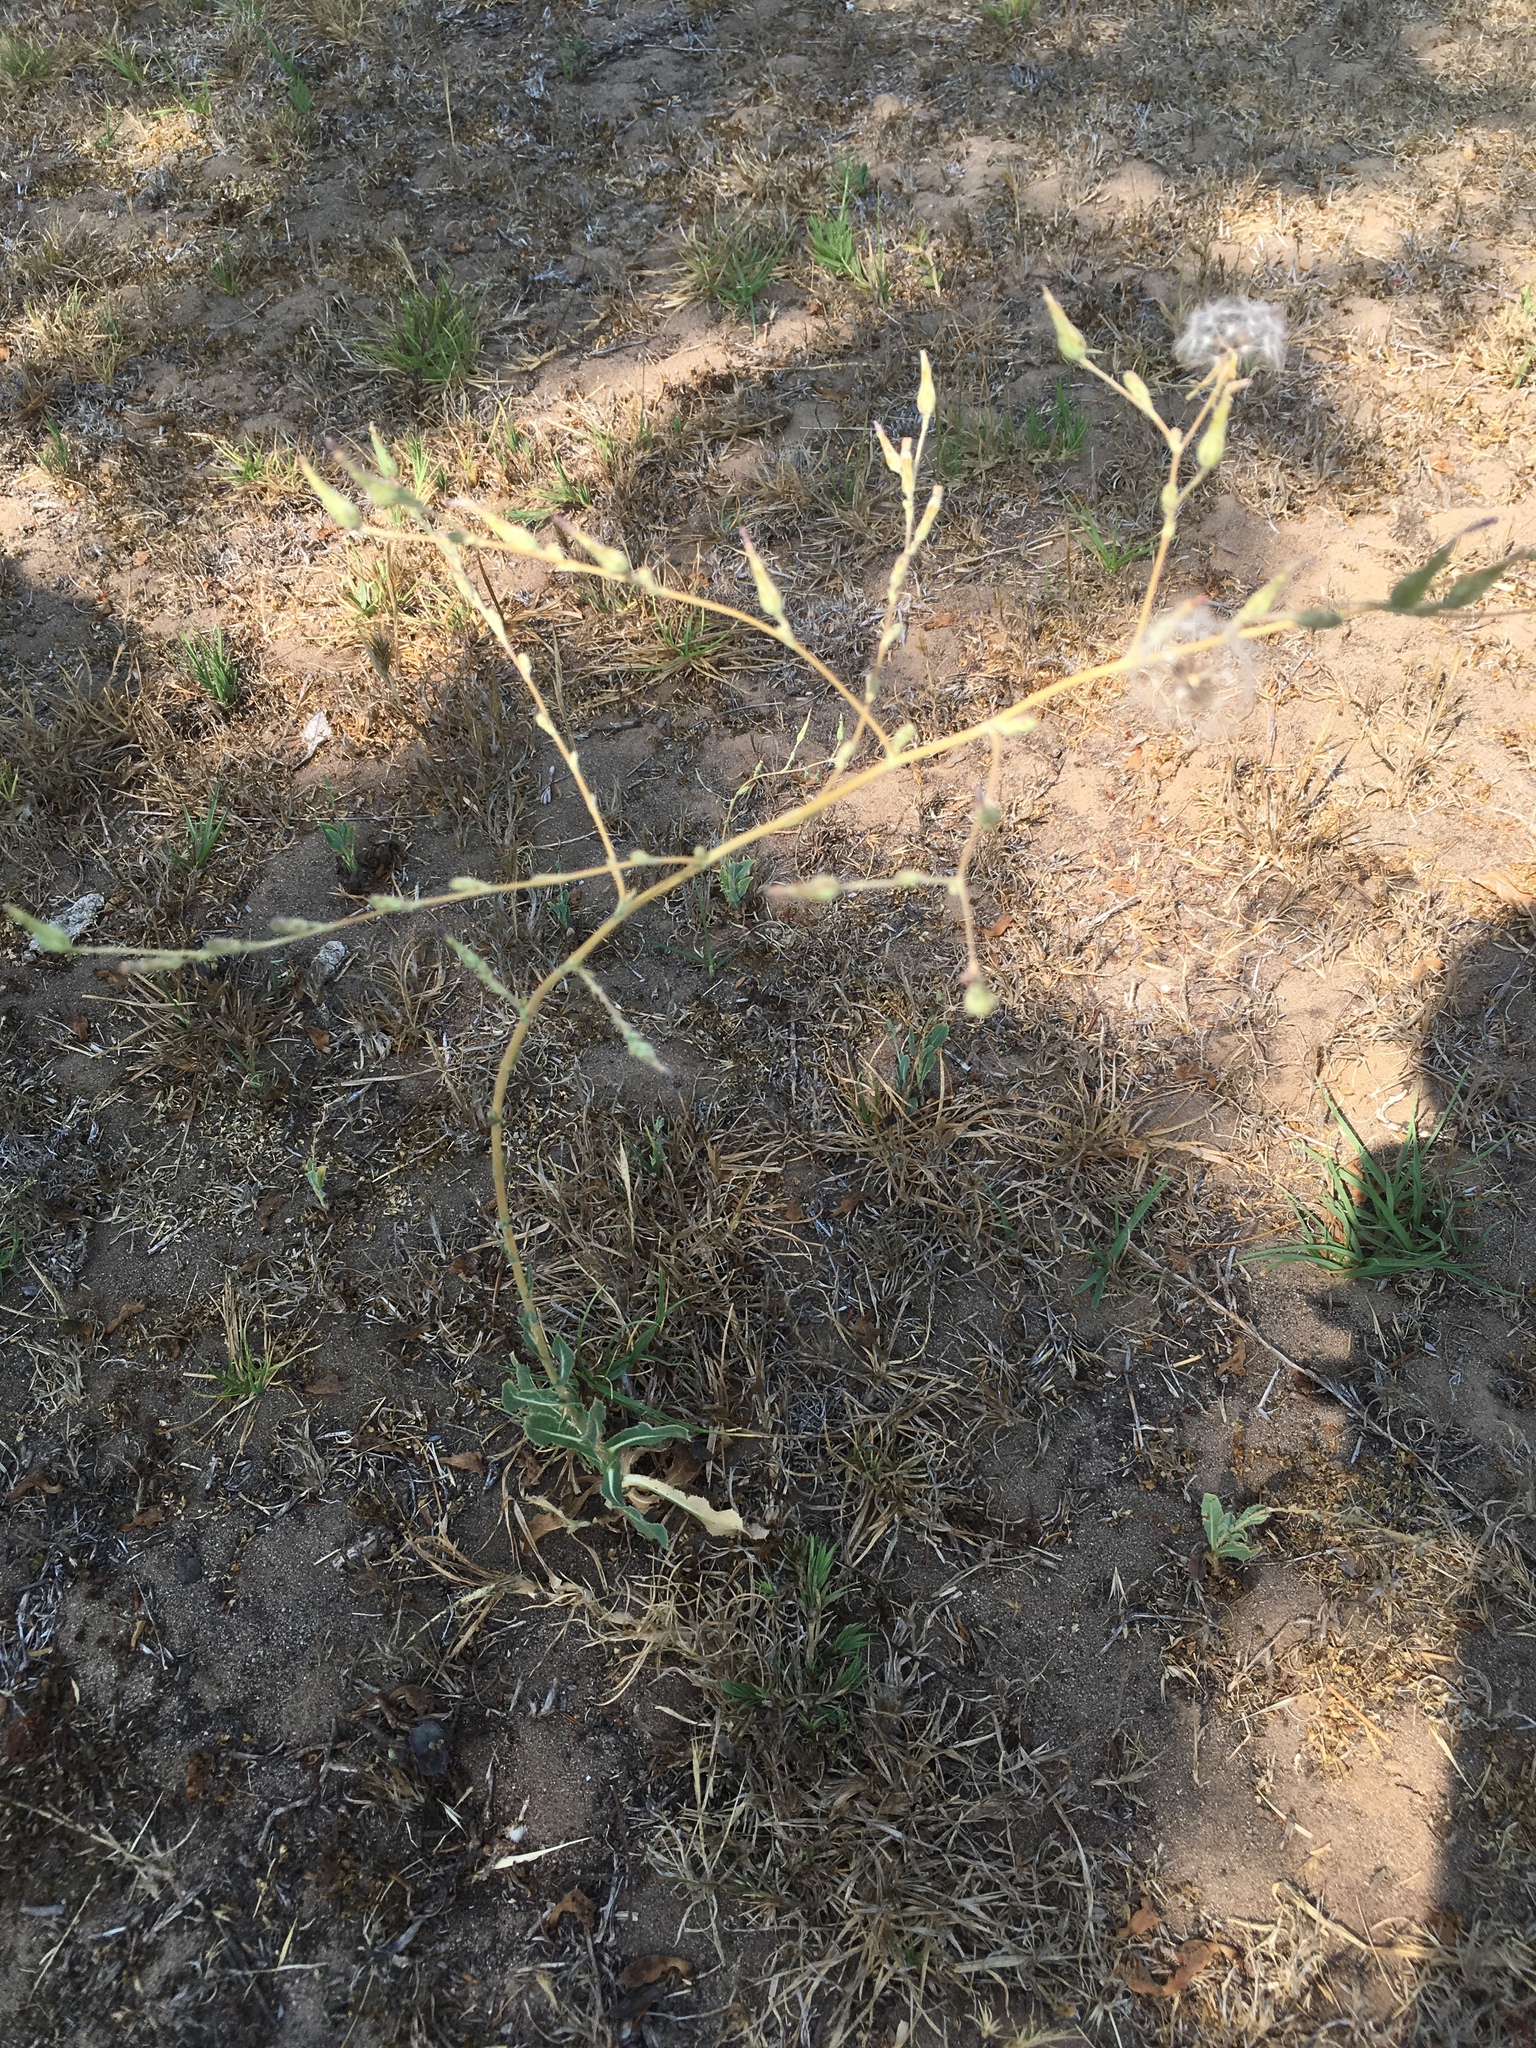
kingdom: Plantae
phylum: Tracheophyta
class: Magnoliopsida
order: Asterales
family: Asteraceae
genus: Lactuca
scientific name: Lactuca serriola
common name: Prickly lettuce
